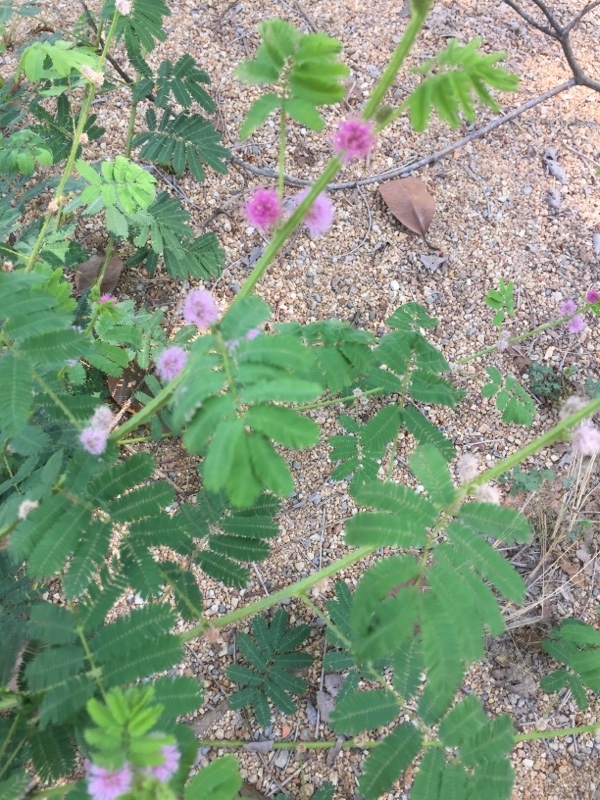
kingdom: Plantae
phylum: Tracheophyta
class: Magnoliopsida
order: Fabales
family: Fabaceae
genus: Mimosa
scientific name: Mimosa pigra
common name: Black mimosa
